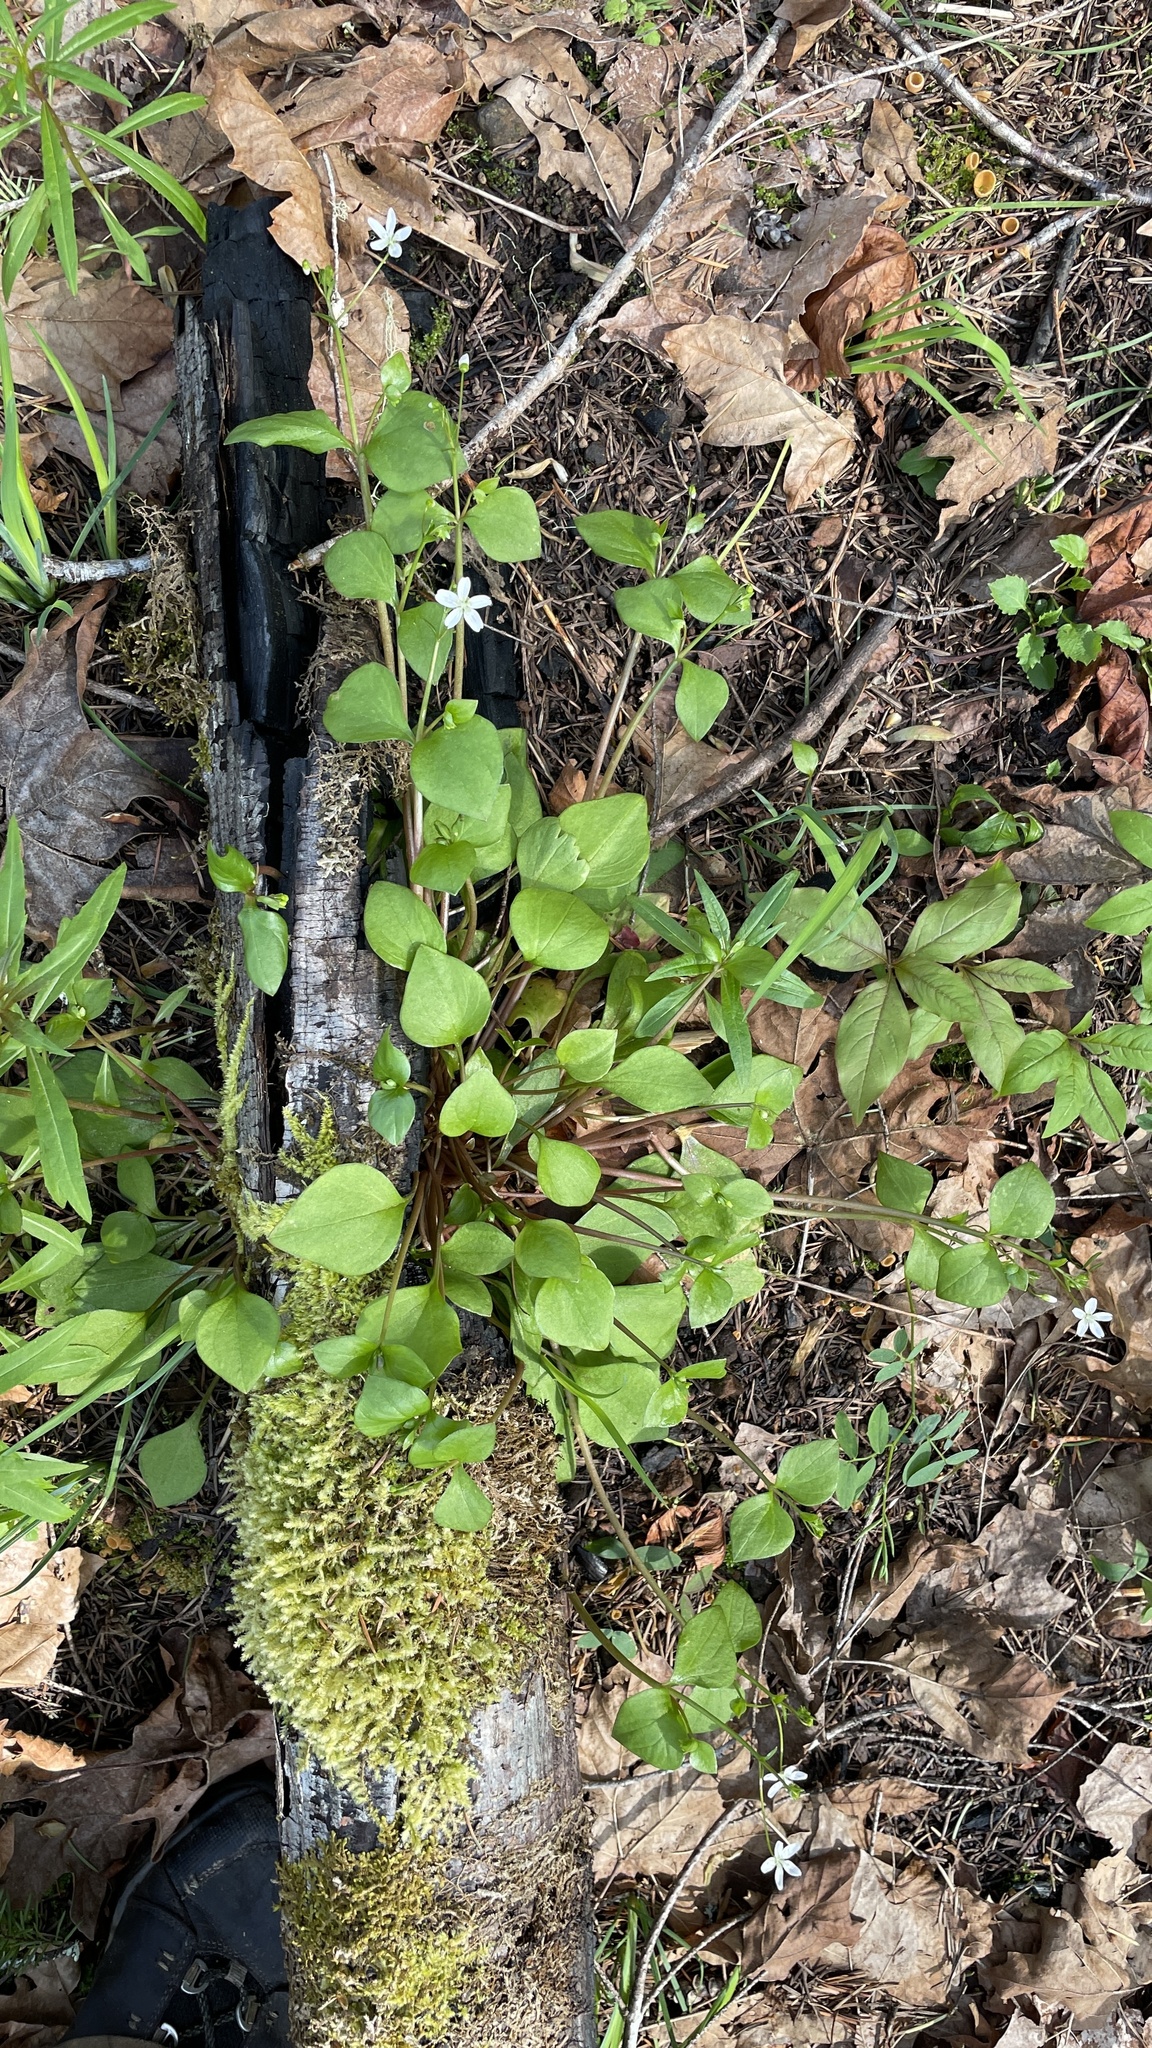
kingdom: Plantae
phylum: Tracheophyta
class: Magnoliopsida
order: Caryophyllales
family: Montiaceae
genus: Claytonia
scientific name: Claytonia sibirica
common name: Pink purslane
